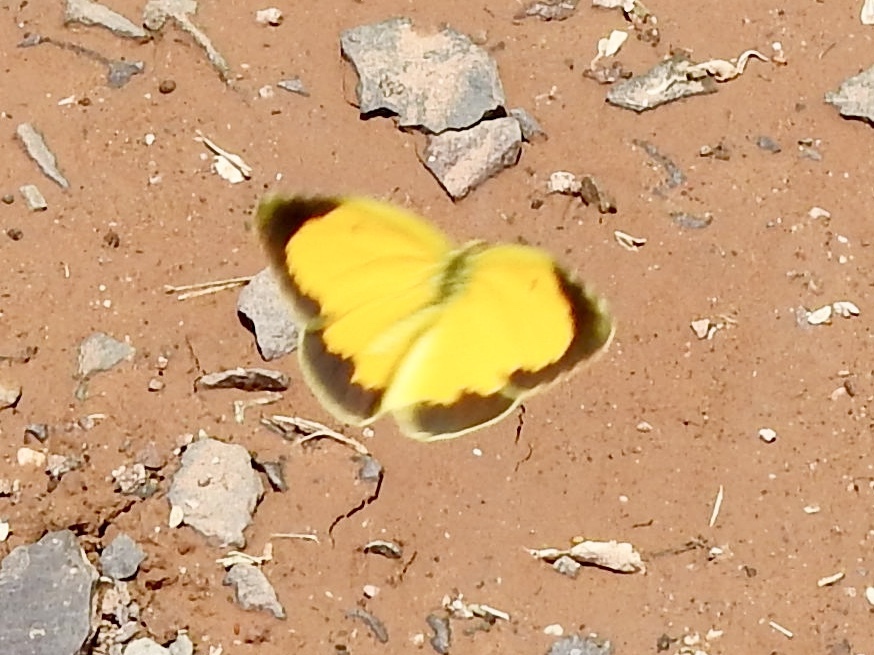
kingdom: Animalia
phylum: Arthropoda
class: Insecta
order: Lepidoptera
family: Pieridae
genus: Abaeis
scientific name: Abaeis nicippe
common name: Sleepy orange
